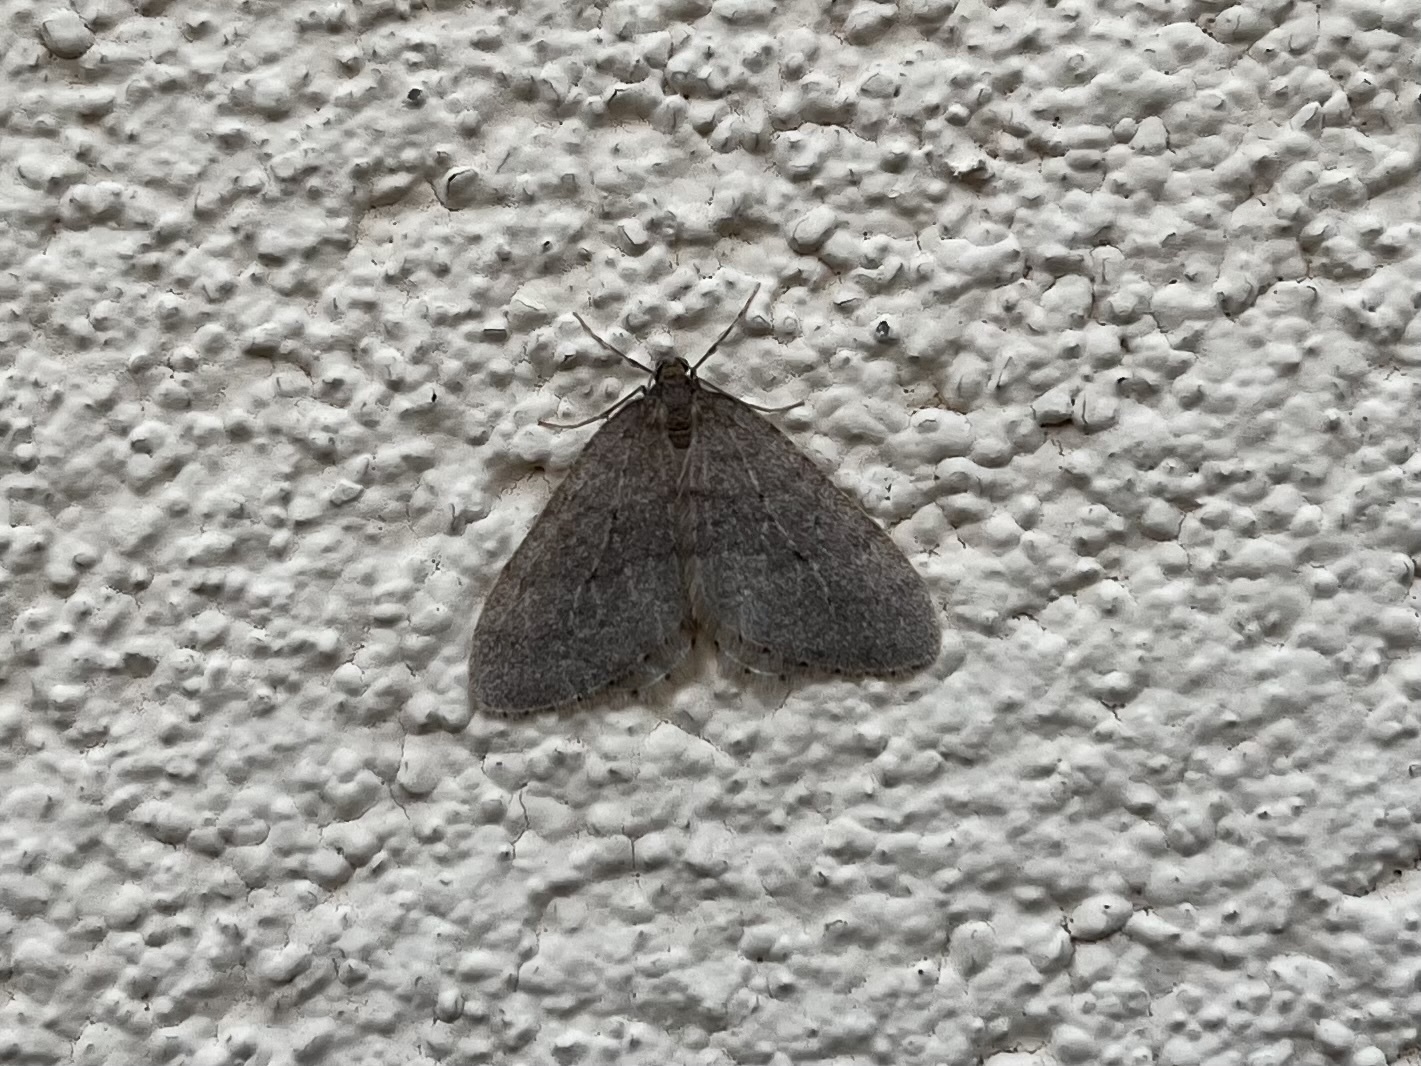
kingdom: Animalia
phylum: Arthropoda
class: Insecta
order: Lepidoptera
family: Geometridae
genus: Operophtera
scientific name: Operophtera brumata
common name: Winter moth
